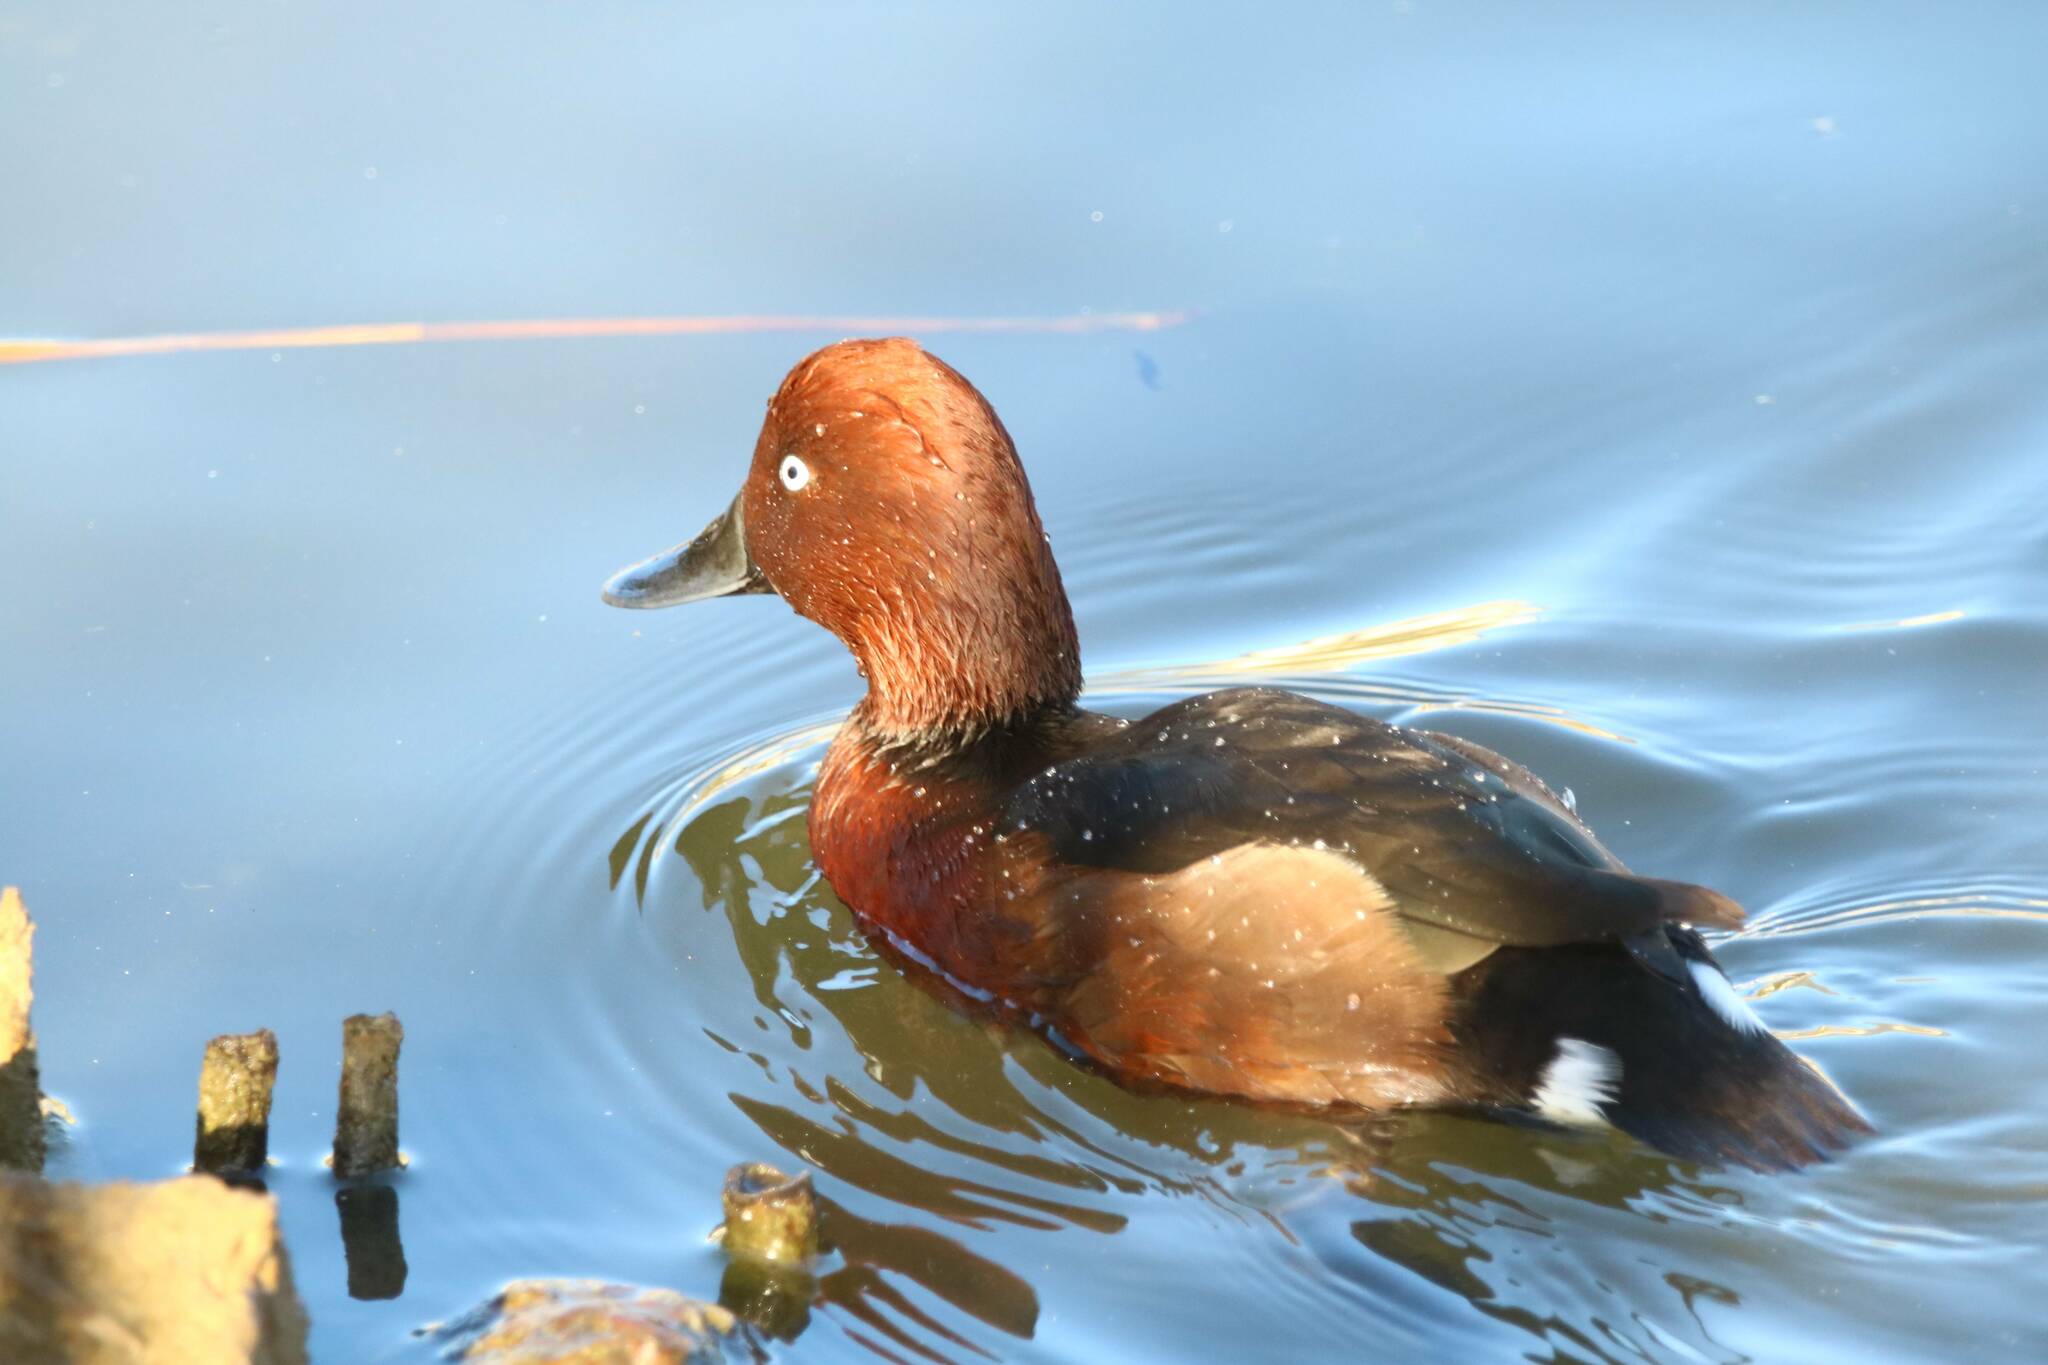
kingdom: Animalia
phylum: Chordata
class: Aves
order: Anseriformes
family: Anatidae
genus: Aythya
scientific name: Aythya nyroca
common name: Ferruginous duck
